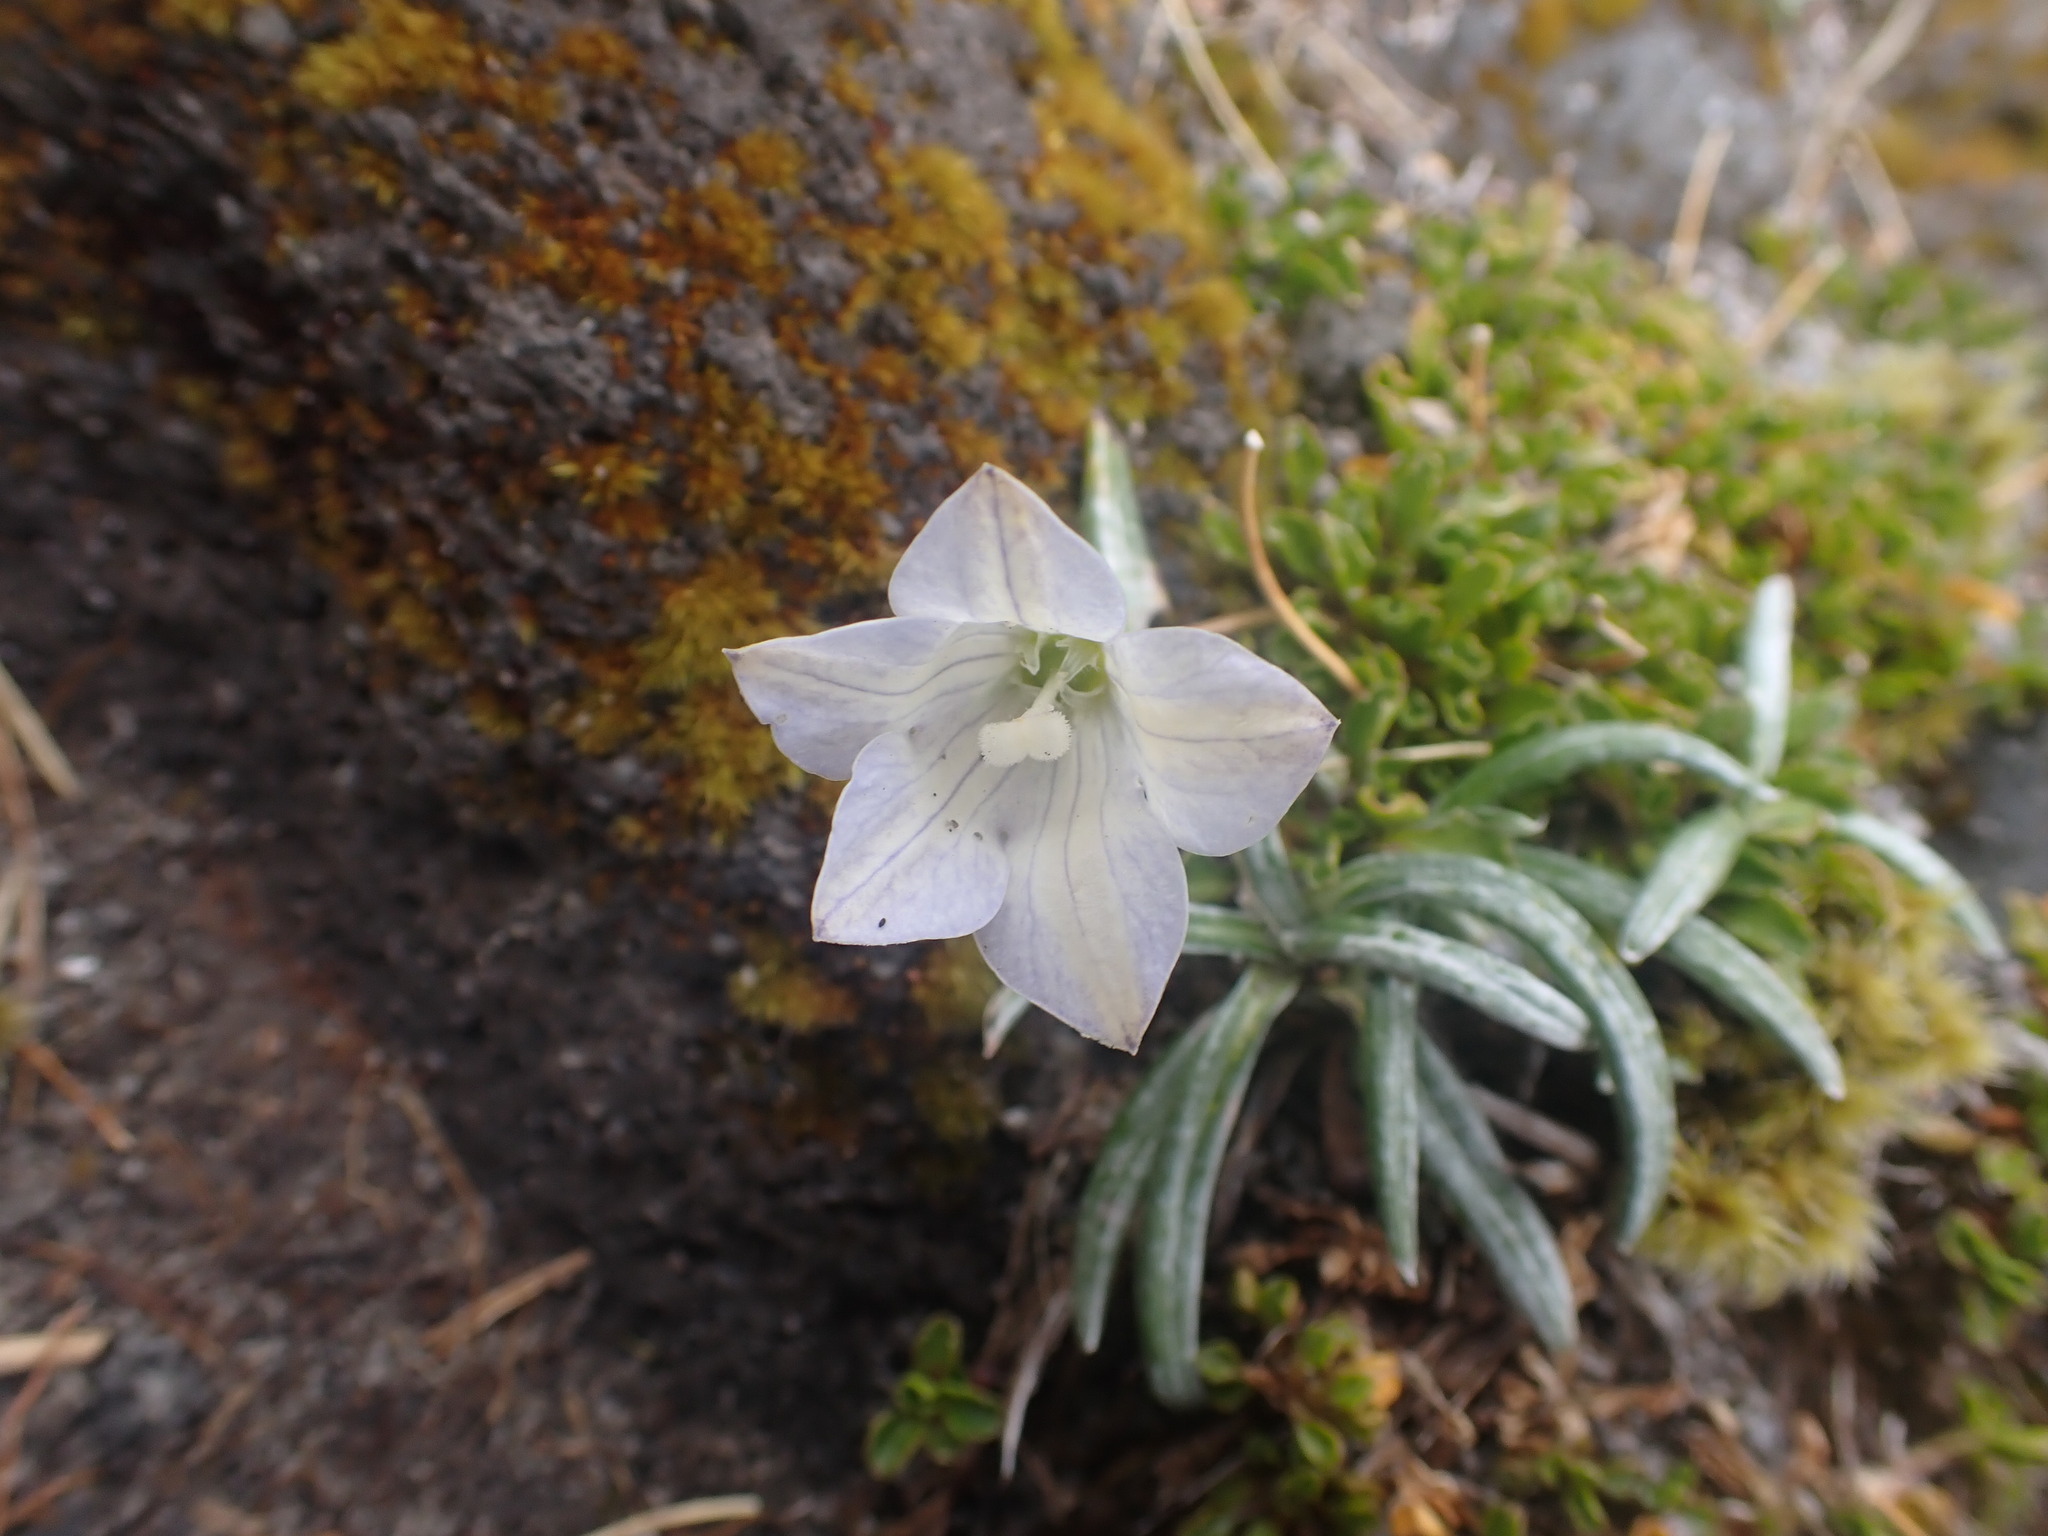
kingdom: Plantae
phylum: Tracheophyta
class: Magnoliopsida
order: Asterales
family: Campanulaceae
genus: Wahlenbergia
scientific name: Wahlenbergia pygmaea
